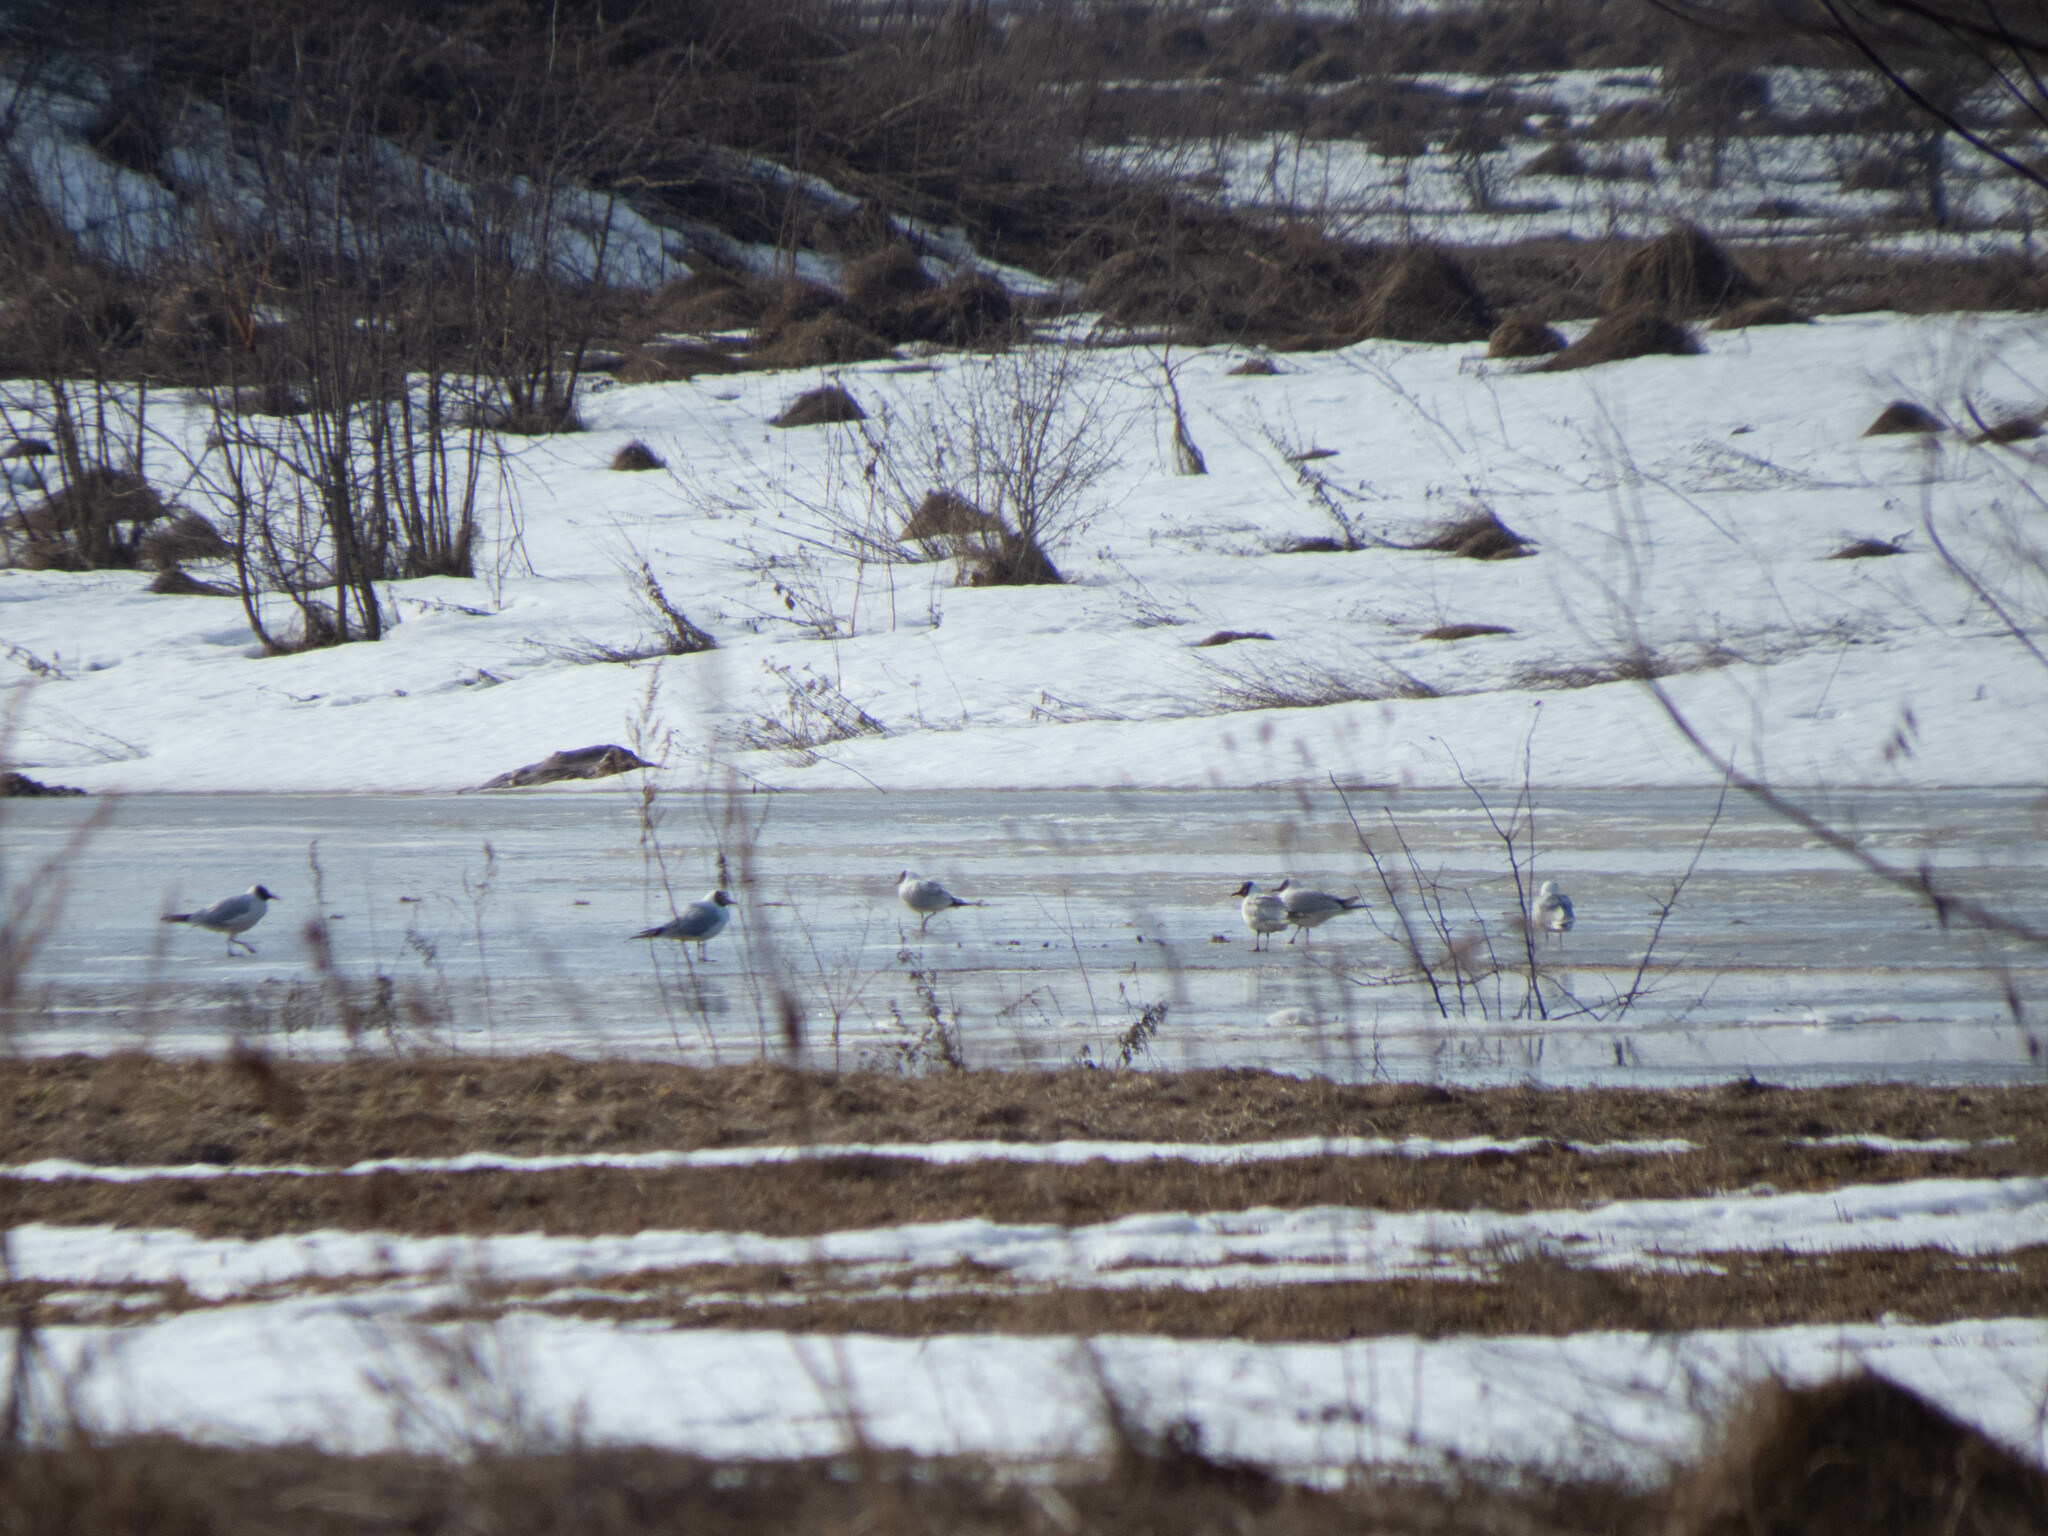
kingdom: Animalia
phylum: Chordata
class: Aves
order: Charadriiformes
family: Laridae
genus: Chroicocephalus
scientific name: Chroicocephalus ridibundus
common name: Black-headed gull
